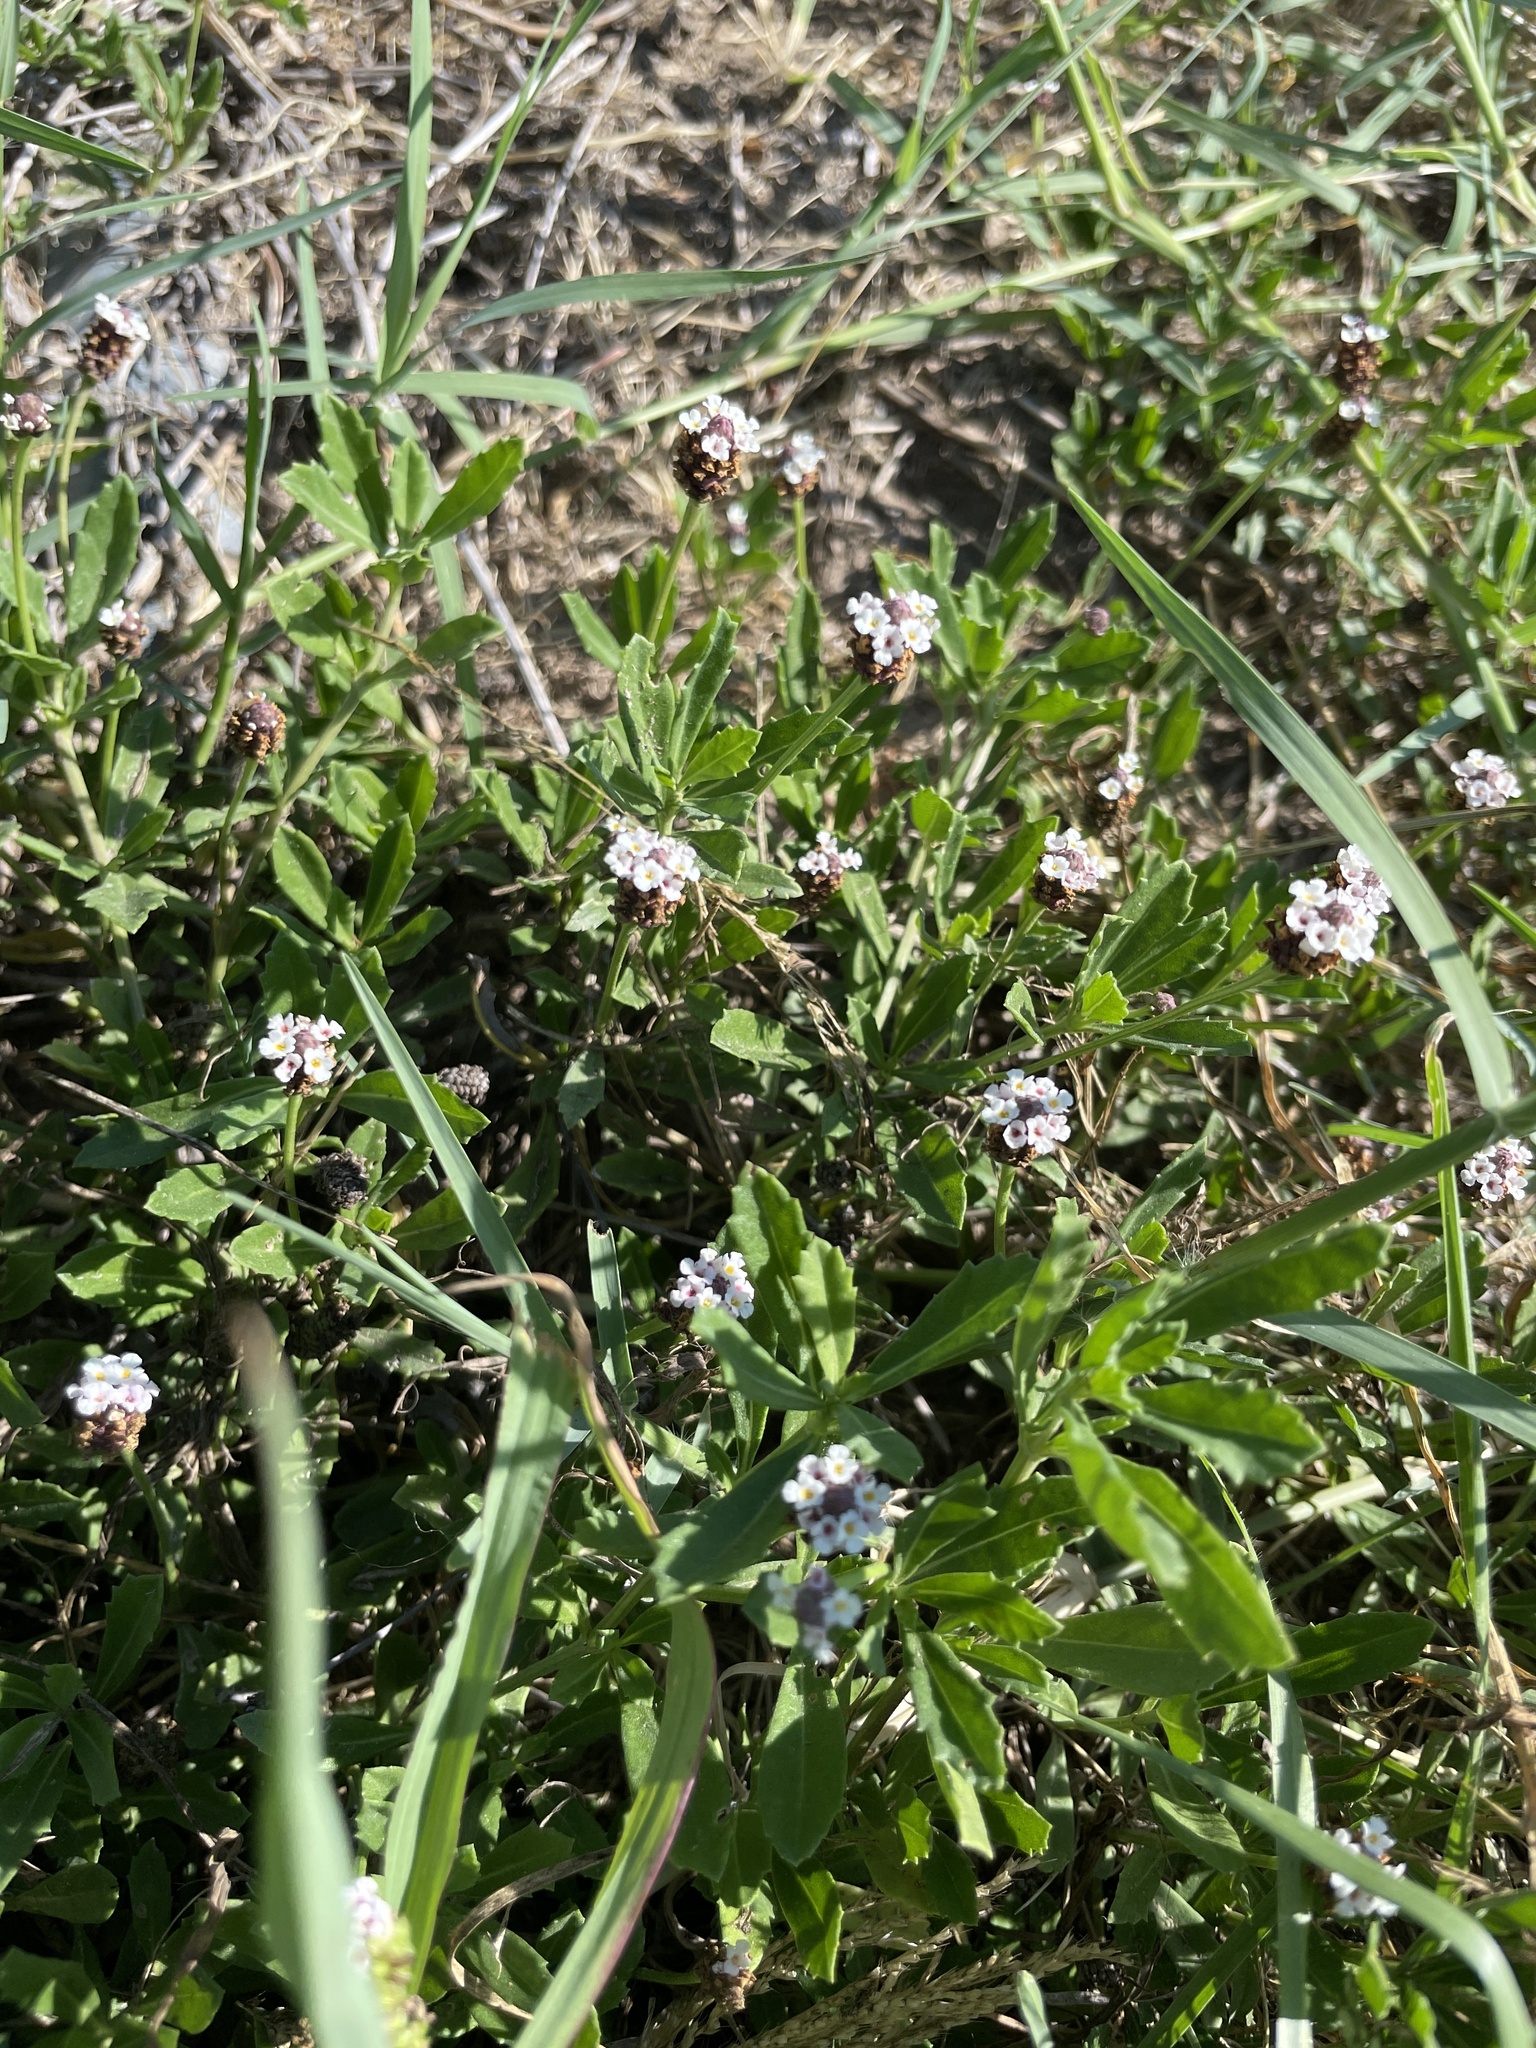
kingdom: Plantae
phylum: Tracheophyta
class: Magnoliopsida
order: Lamiales
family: Verbenaceae
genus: Phyla
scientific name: Phyla nodiflora
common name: Frogfruit
